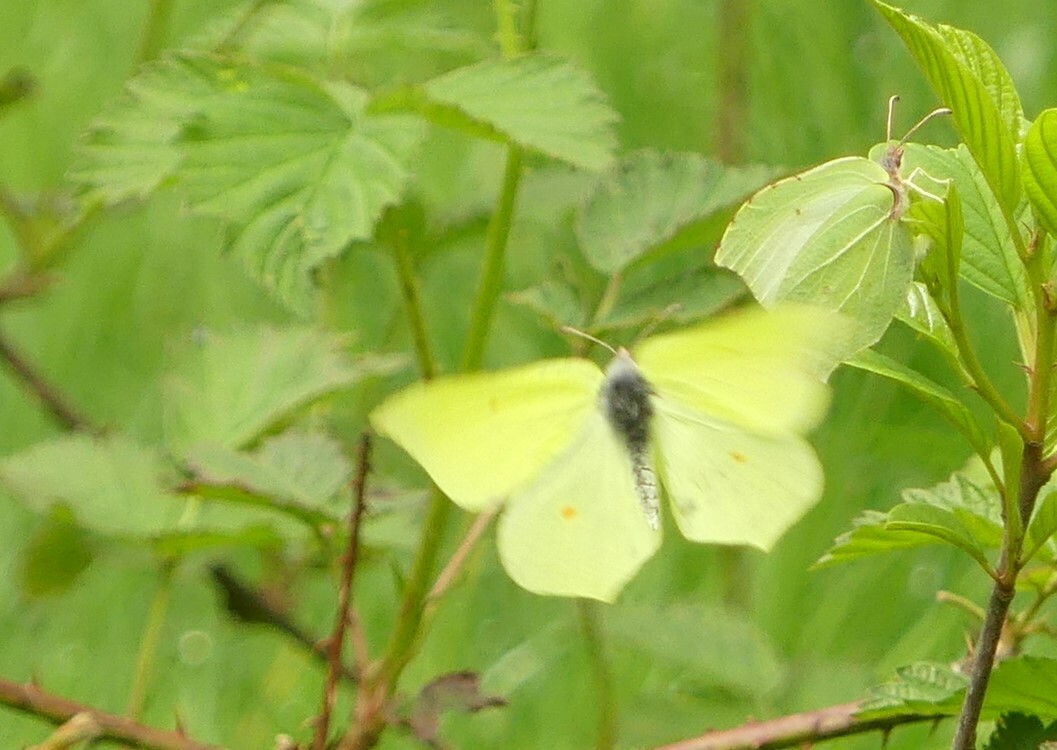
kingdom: Animalia
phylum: Arthropoda
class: Insecta
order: Lepidoptera
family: Pieridae
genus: Gonepteryx
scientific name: Gonepteryx rhamni
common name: Brimstone
